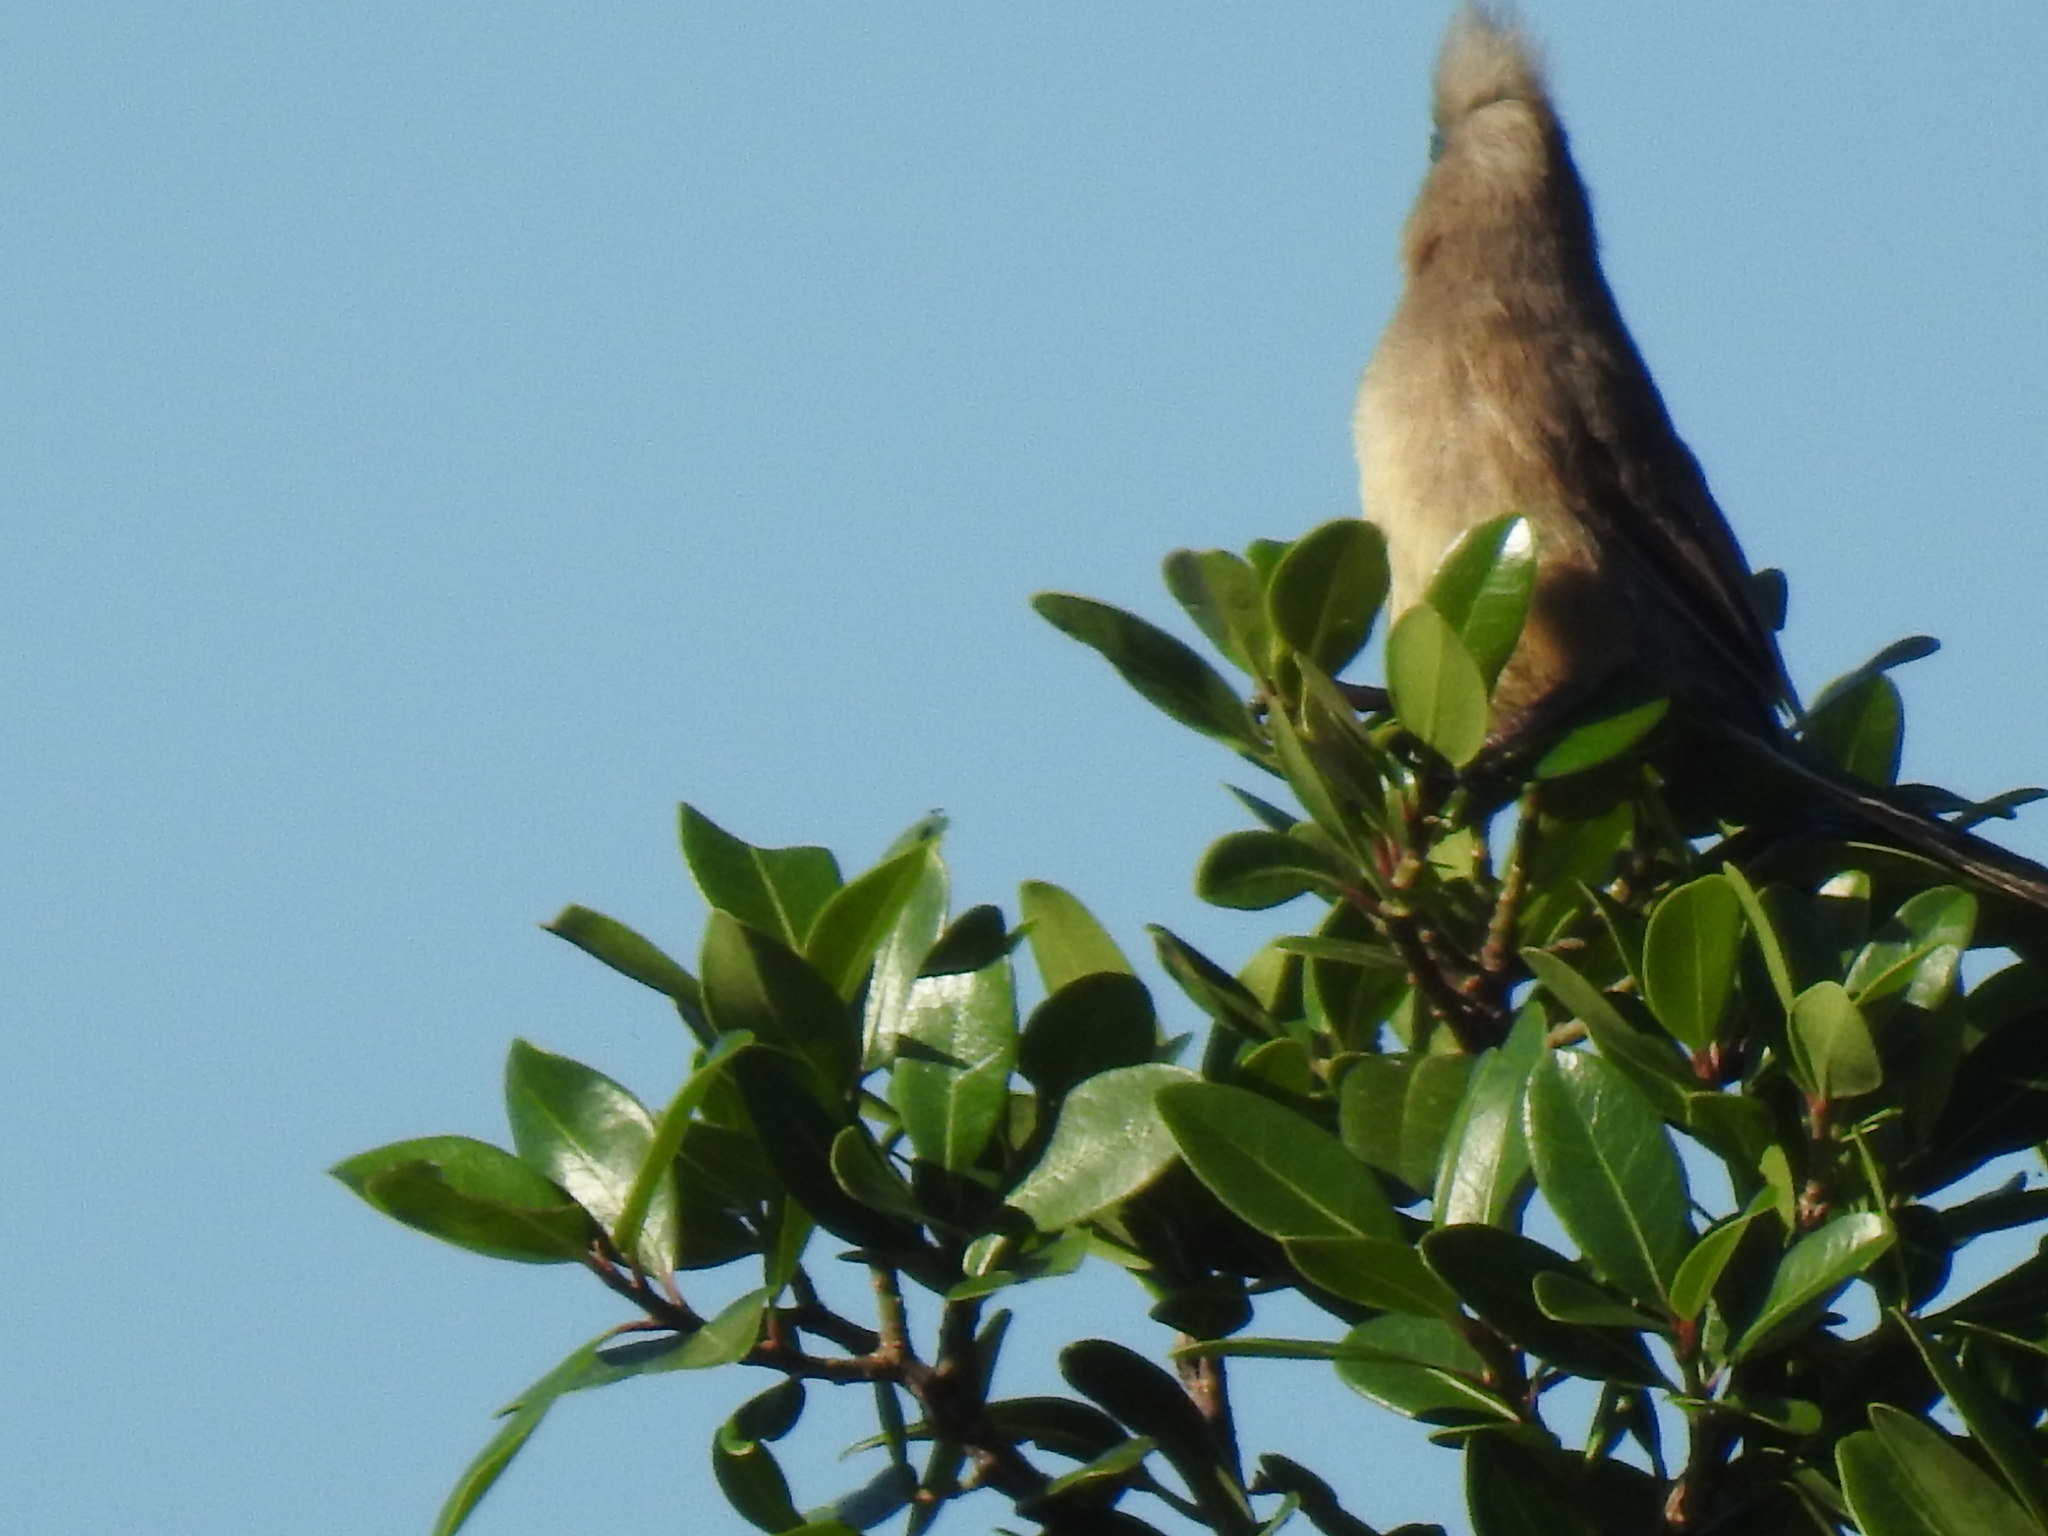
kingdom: Animalia
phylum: Chordata
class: Aves
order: Coliiformes
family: Coliidae
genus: Colius
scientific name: Colius striatus
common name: Speckled mousebird
